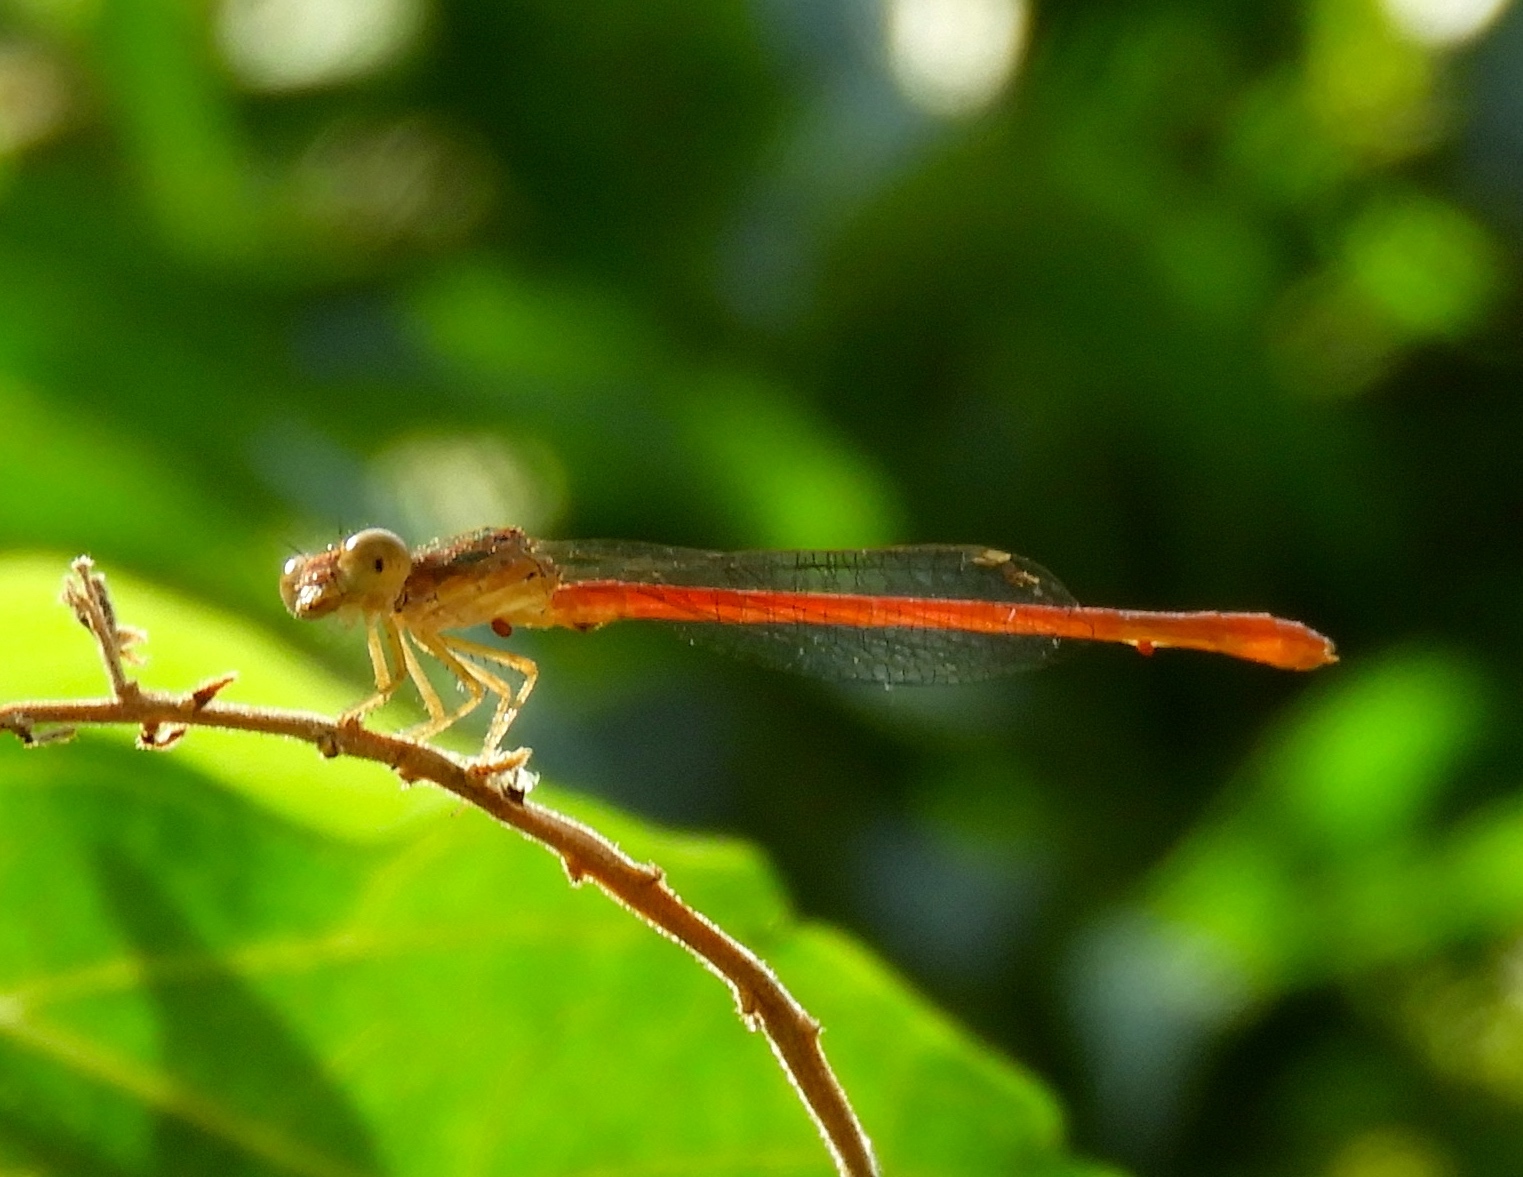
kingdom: Animalia
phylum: Arthropoda
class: Insecta
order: Odonata
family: Coenagrionidae
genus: Telebasis
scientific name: Telebasis salva
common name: Desert firetail
